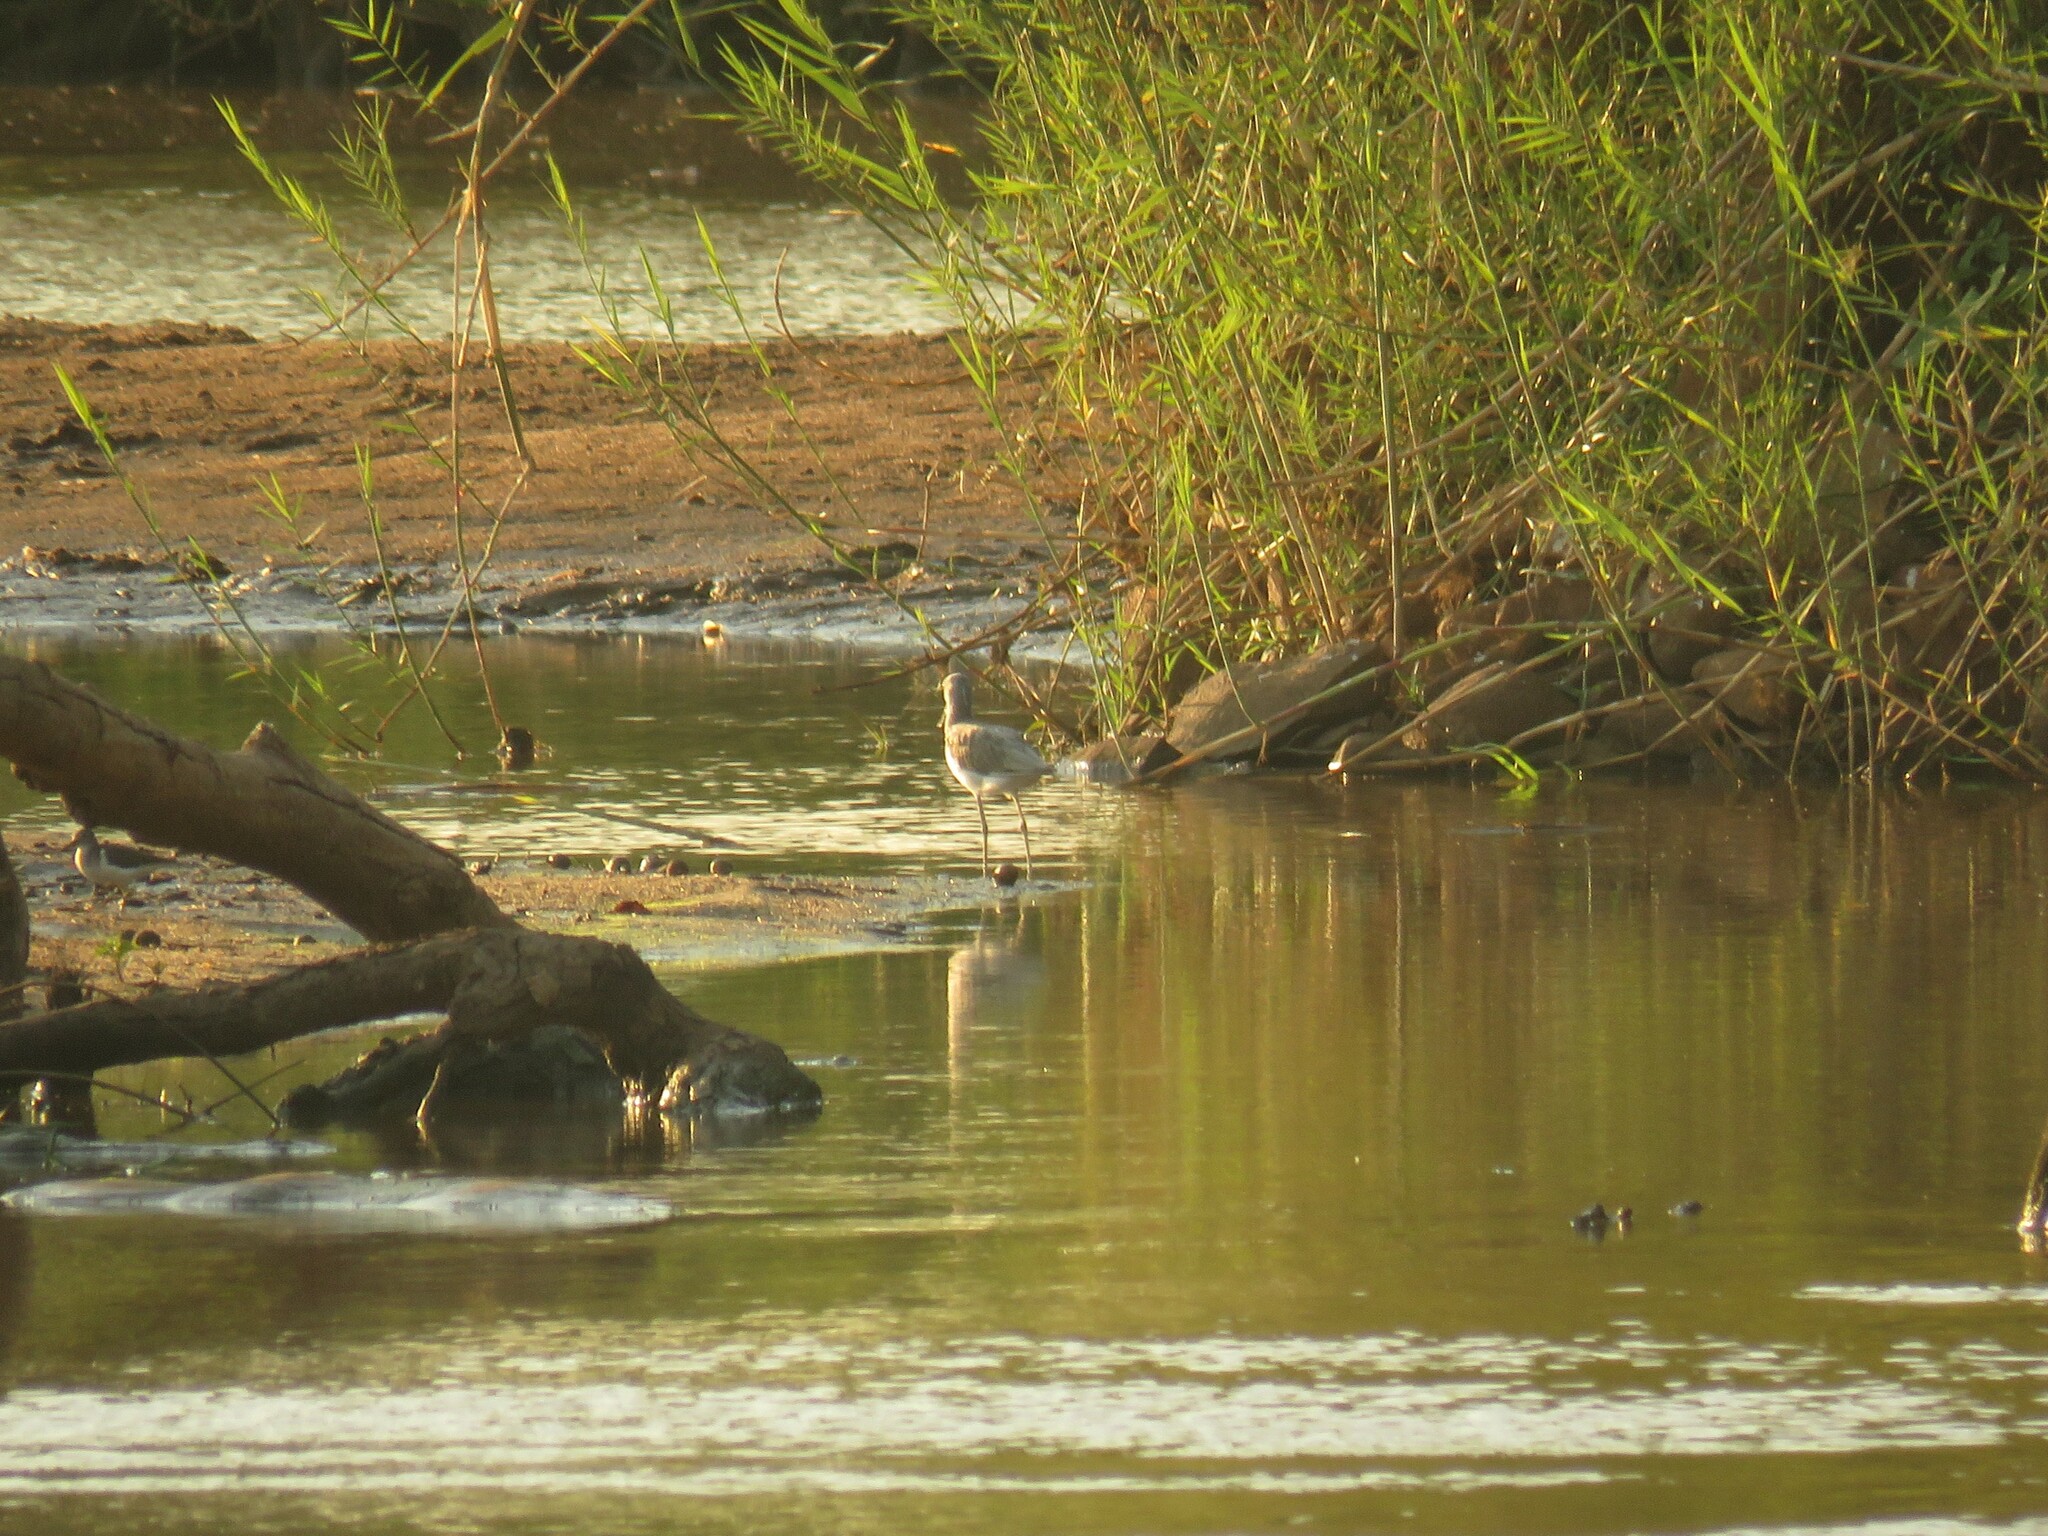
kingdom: Animalia
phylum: Chordata
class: Aves
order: Charadriiformes
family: Scolopacidae
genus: Tringa
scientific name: Tringa nebularia
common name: Common greenshank
